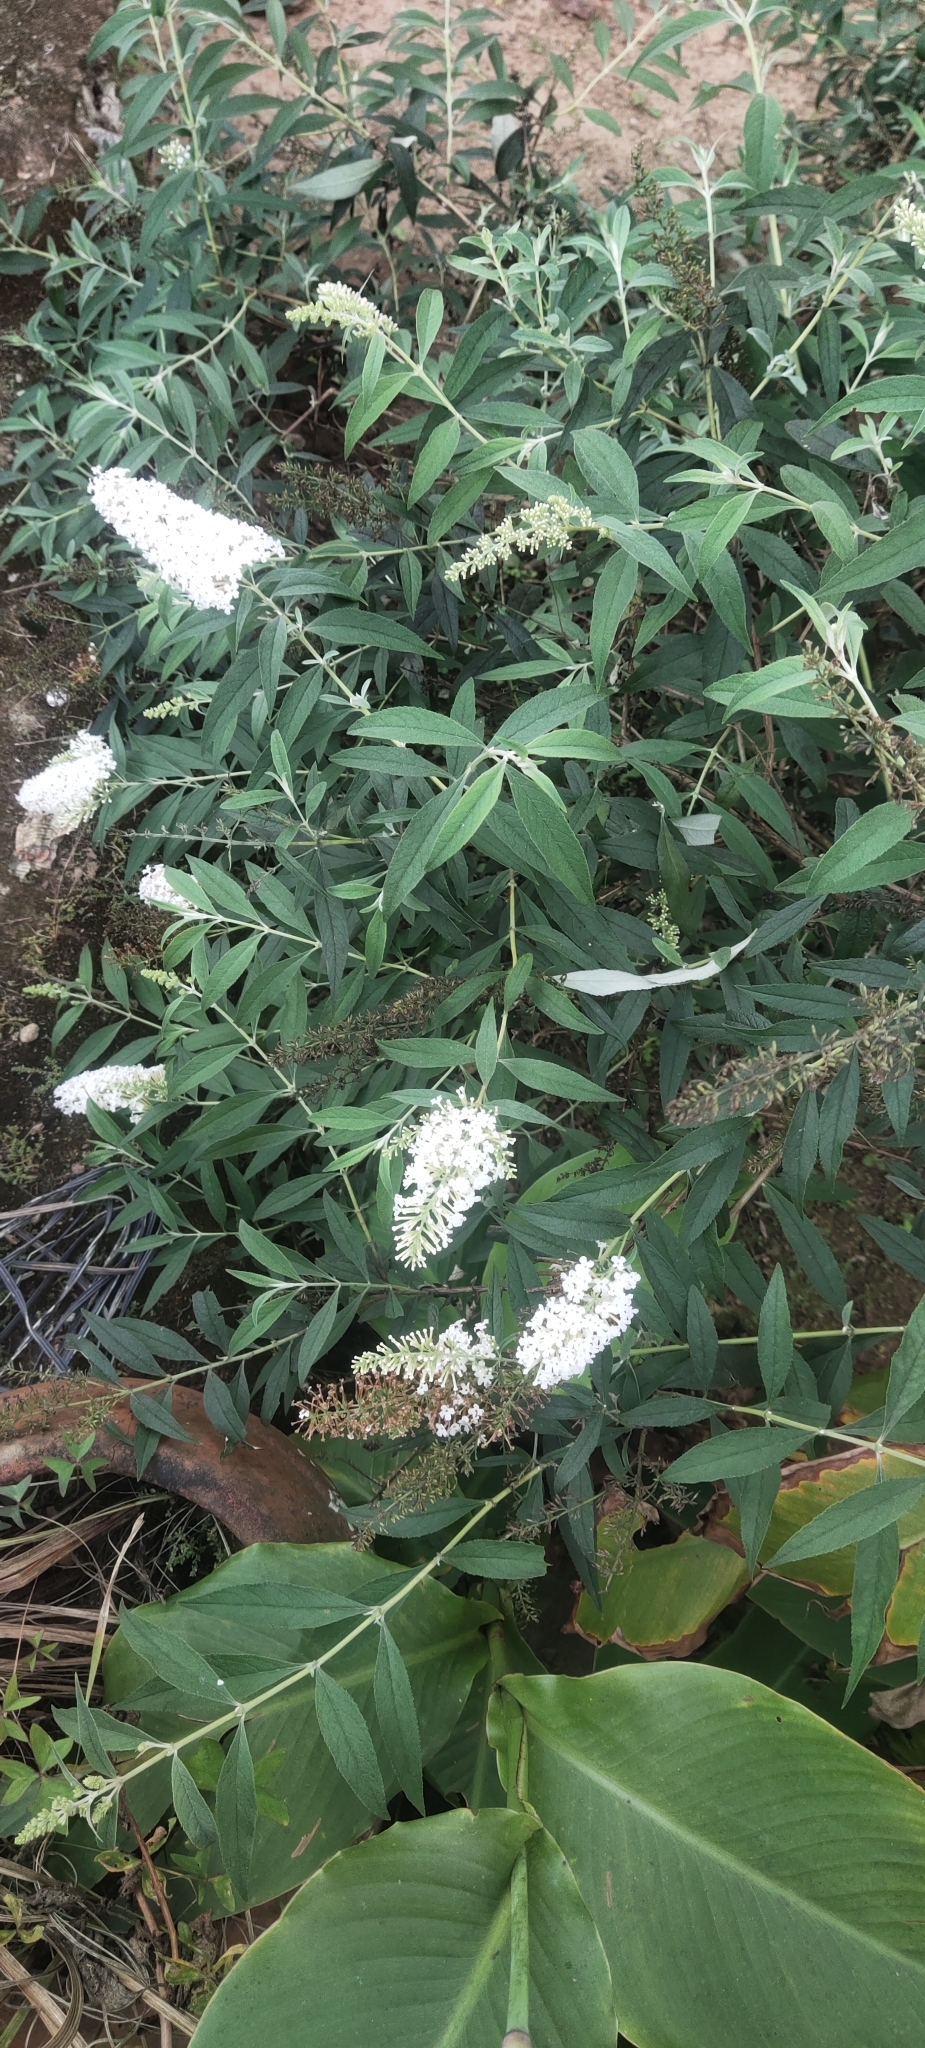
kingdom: Plantae
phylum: Tracheophyta
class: Magnoliopsida
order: Lamiales
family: Scrophulariaceae
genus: Buddleja
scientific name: Buddleja asiatica
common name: Dog tail
